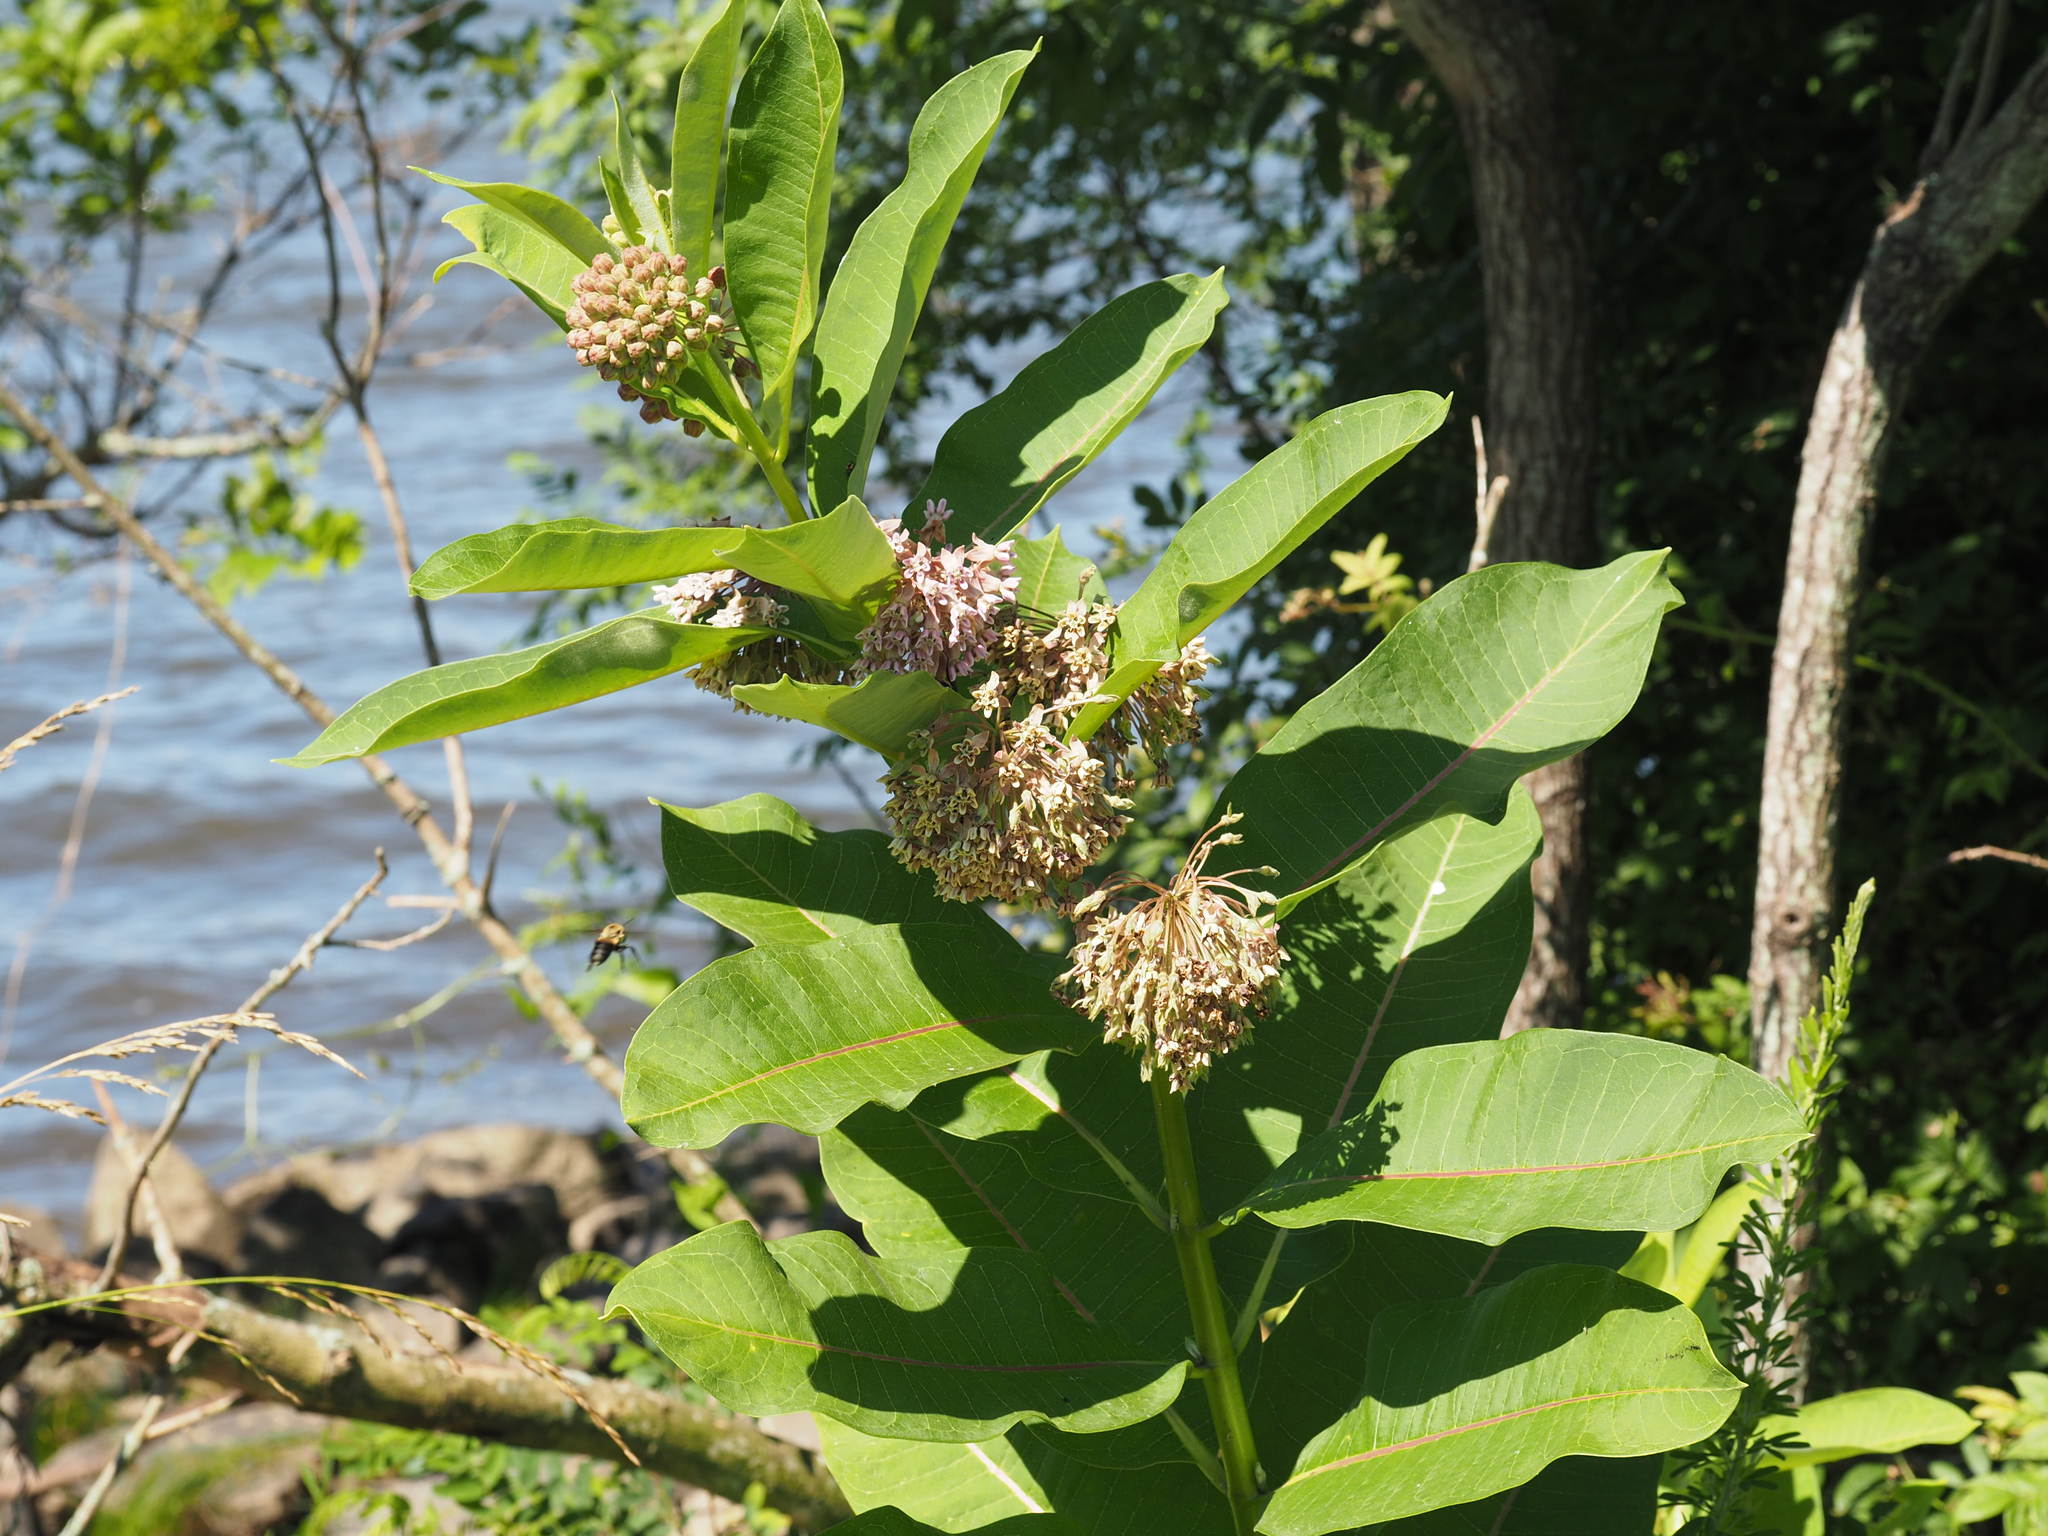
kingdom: Plantae
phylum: Tracheophyta
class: Magnoliopsida
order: Gentianales
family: Apocynaceae
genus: Asclepias
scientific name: Asclepias syriaca
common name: Common milkweed
